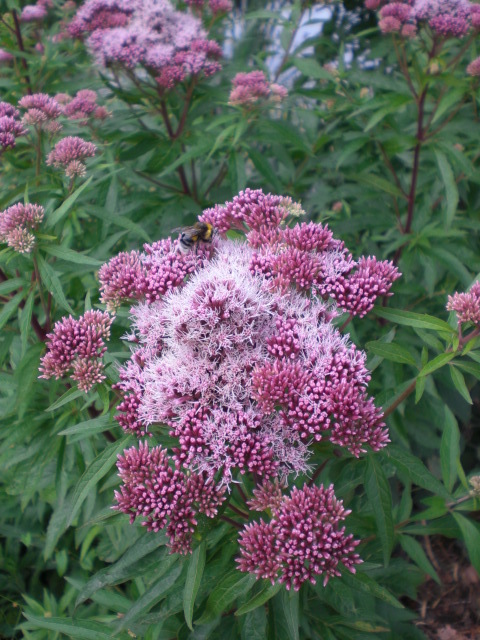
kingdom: Plantae
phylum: Tracheophyta
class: Magnoliopsida
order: Asterales
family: Asteraceae
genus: Eupatorium
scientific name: Eupatorium cannabinum
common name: Hemp-agrimony
